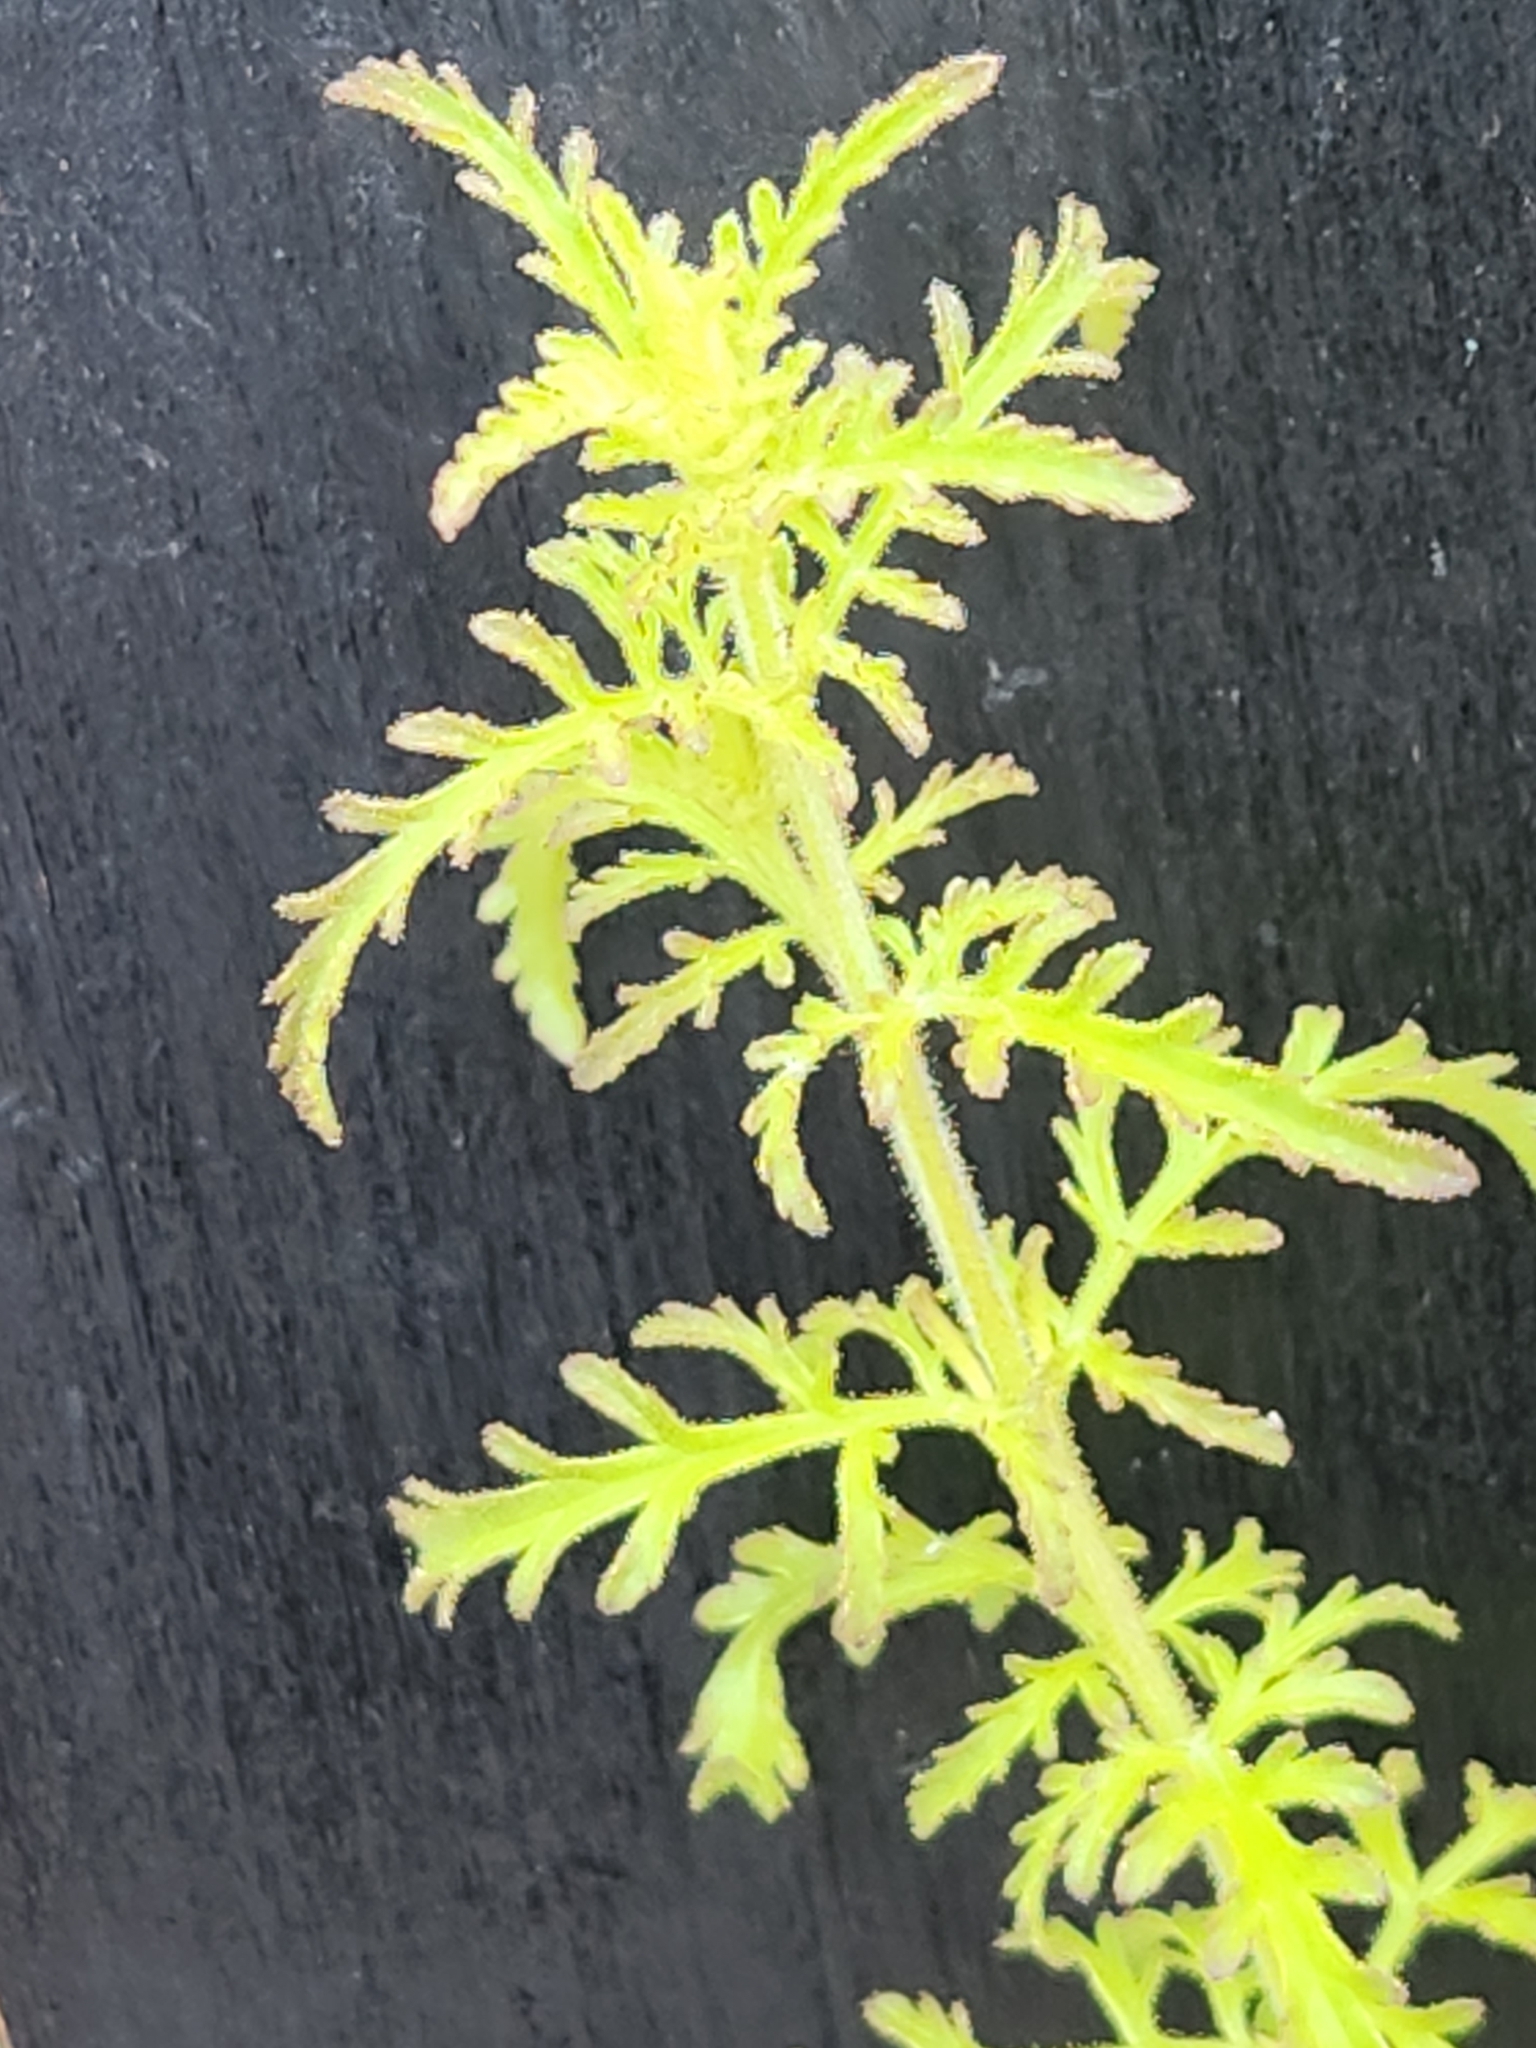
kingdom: Plantae
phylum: Tracheophyta
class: Magnoliopsida
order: Lamiales
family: Orobanchaceae
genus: Seymeria
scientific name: Seymeria bipinnatisecta
